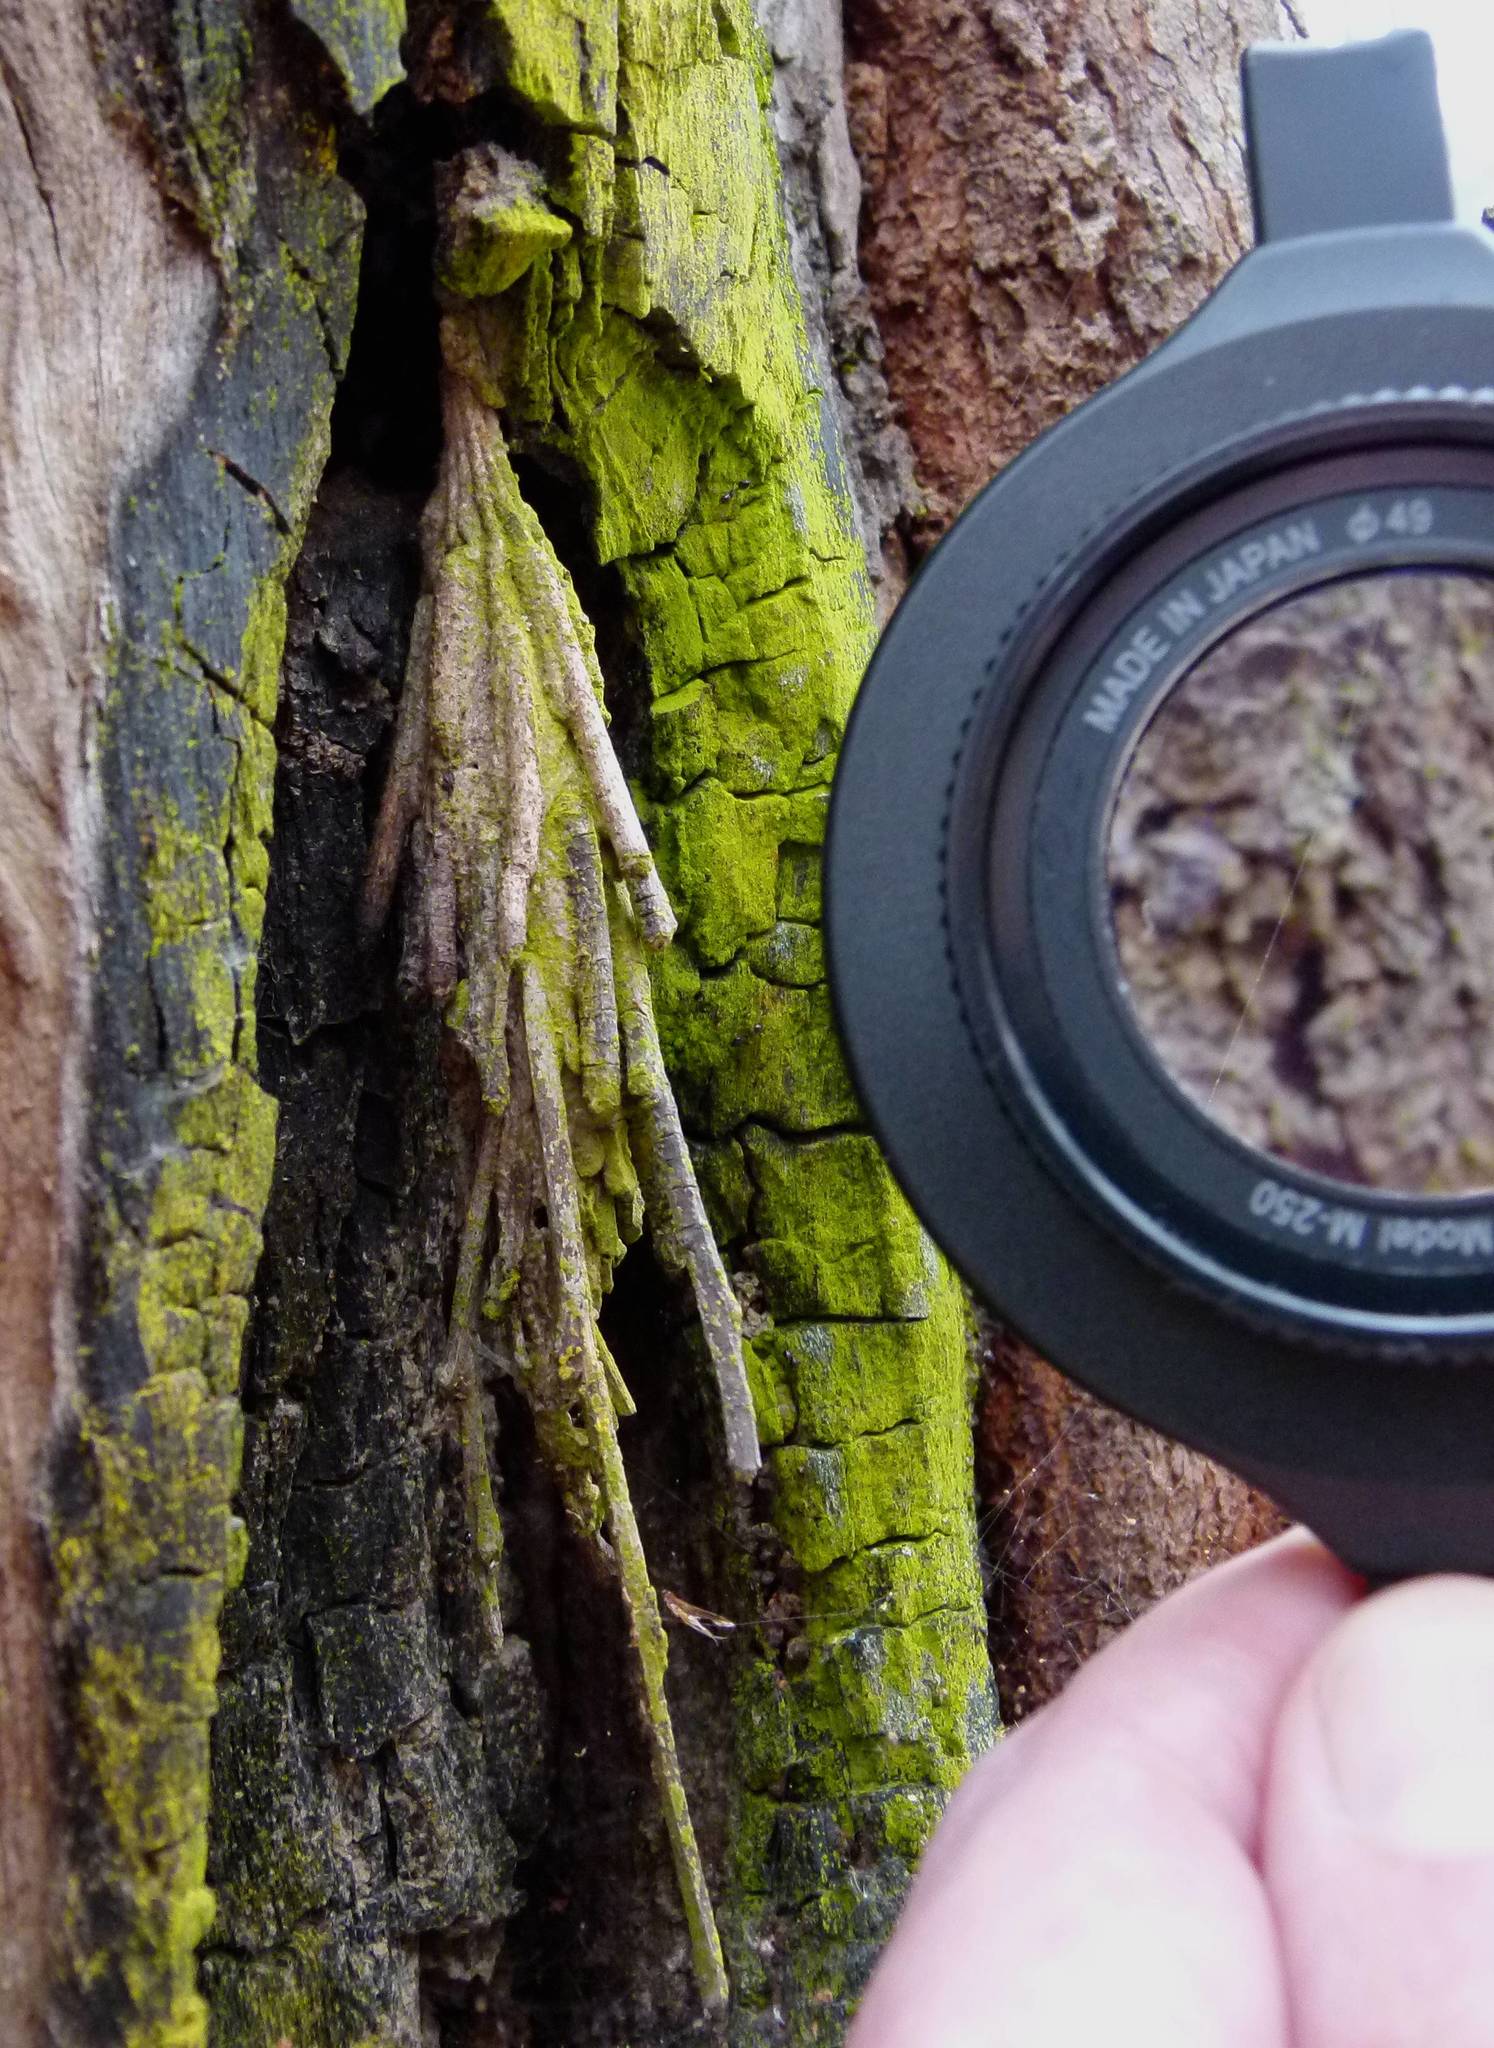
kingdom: Animalia
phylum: Arthropoda
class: Insecta
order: Lepidoptera
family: Psychidae
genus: Metura
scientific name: Metura elongatus
